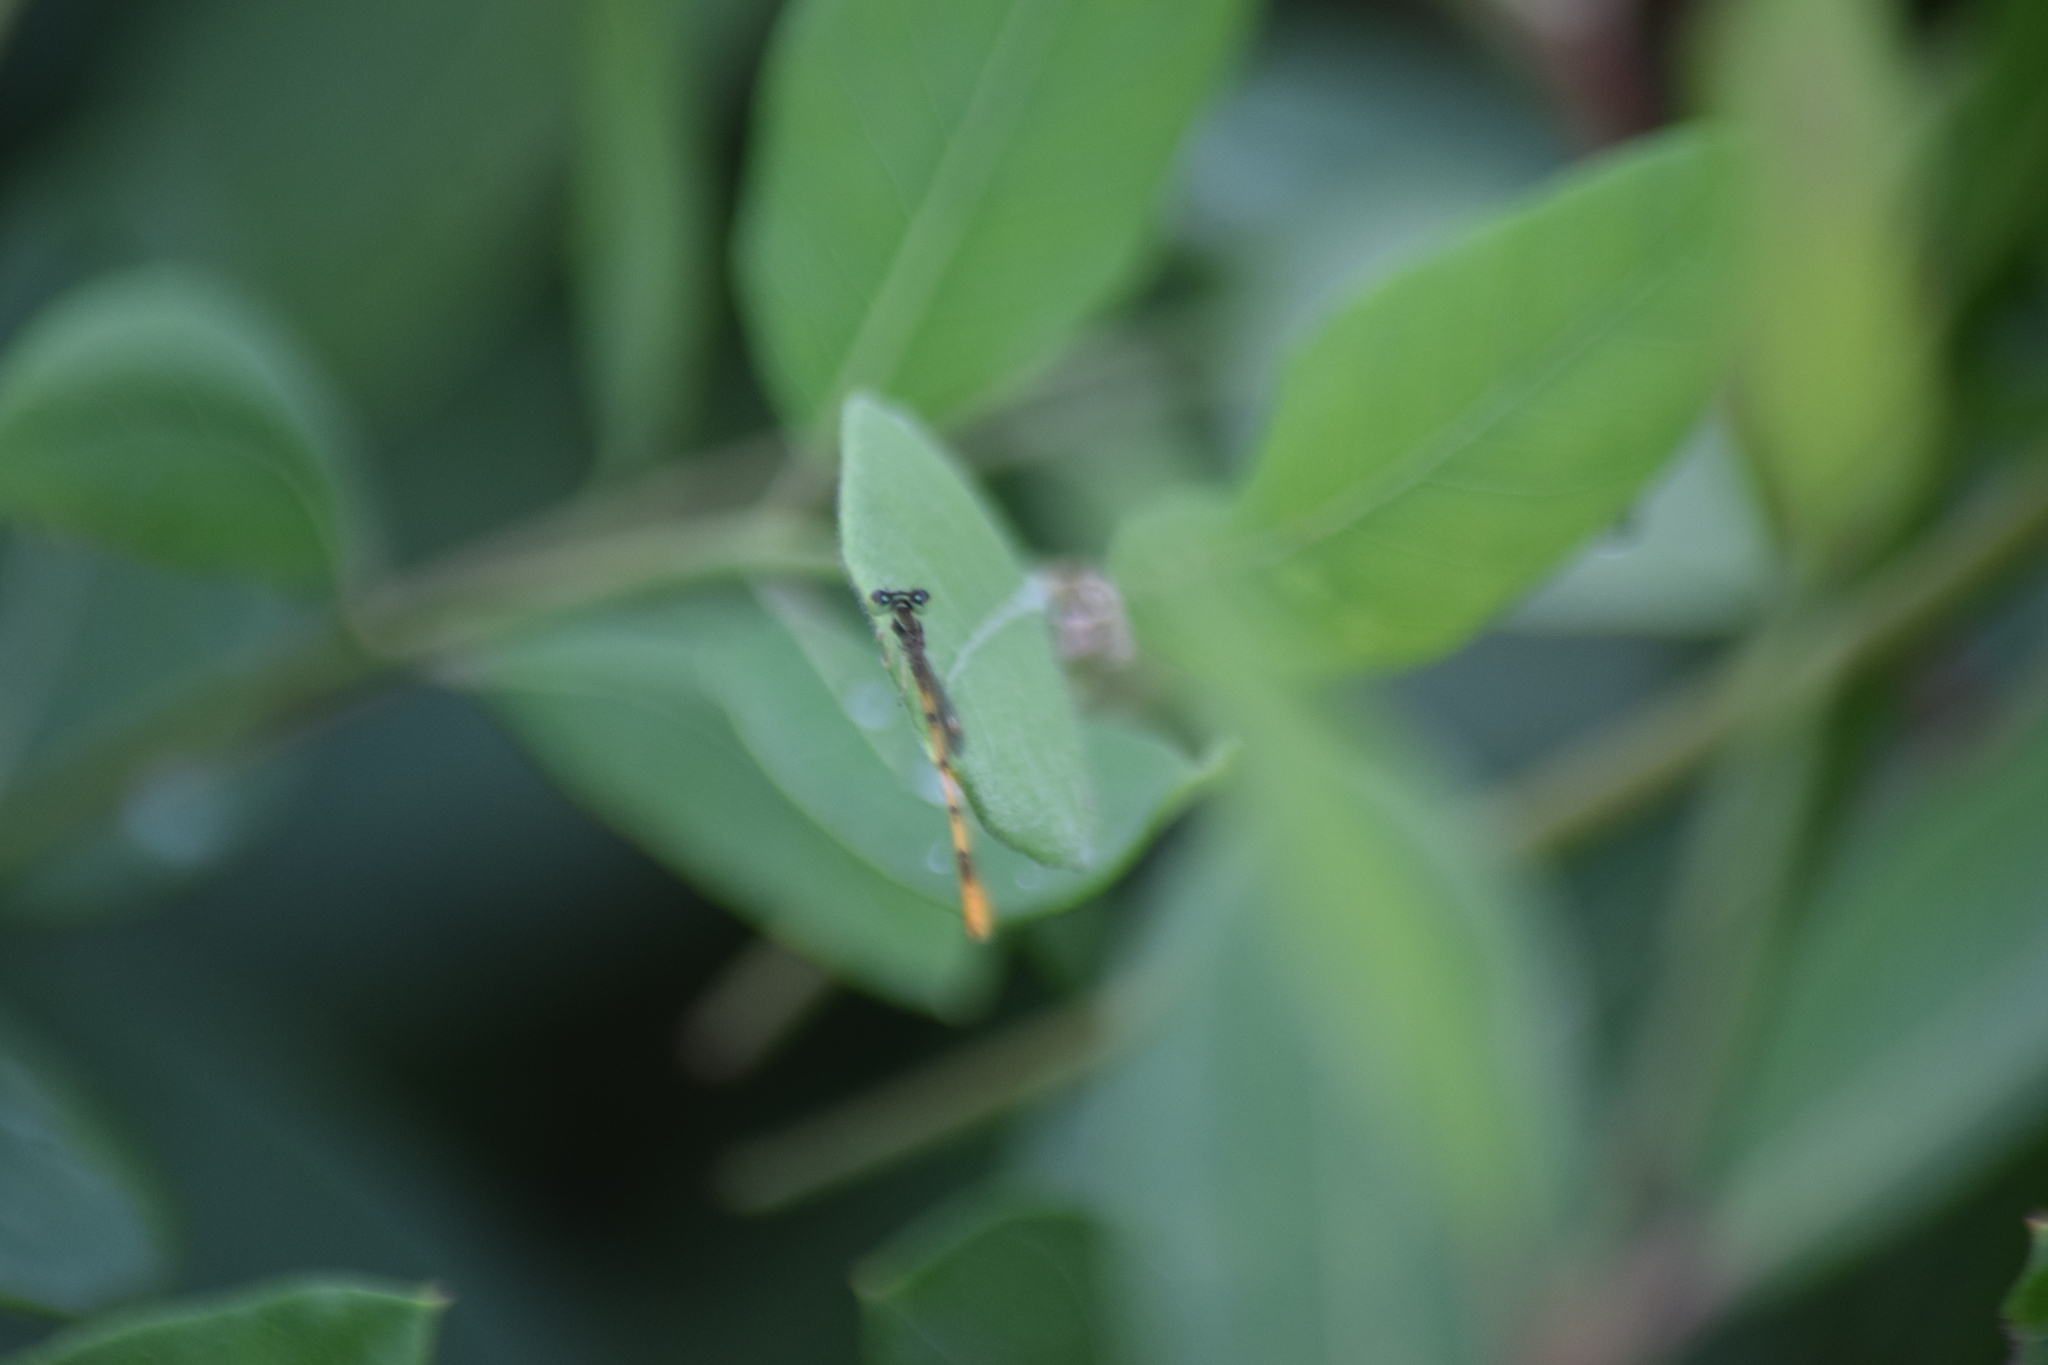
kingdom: Animalia
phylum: Arthropoda
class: Insecta
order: Odonata
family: Coenagrionidae
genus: Ischnura
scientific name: Ischnura hastata
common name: Citrine forktail
